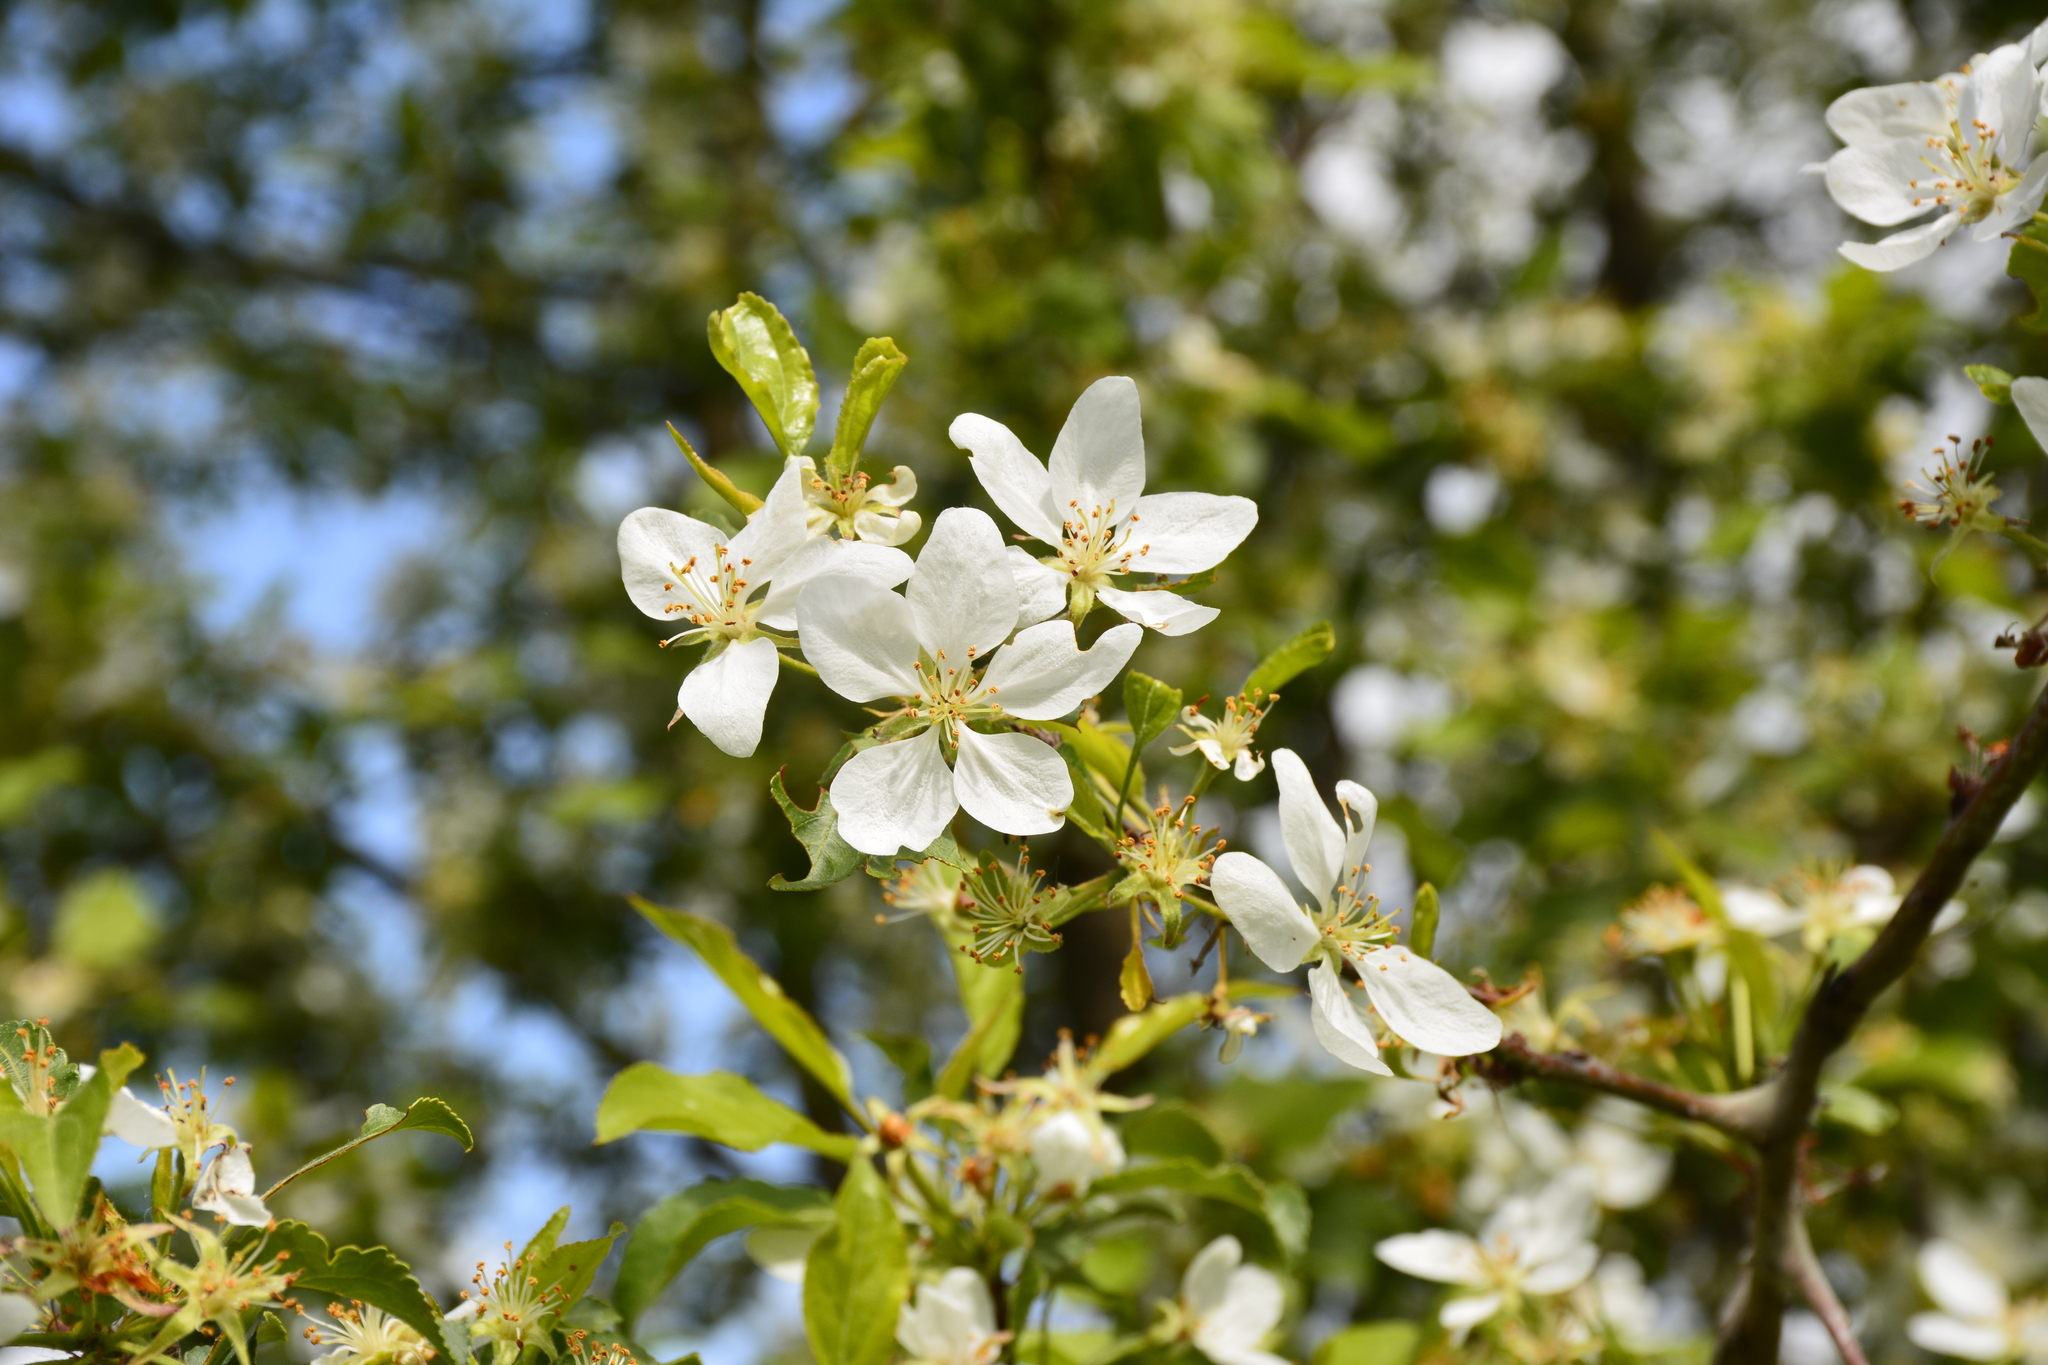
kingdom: Plantae
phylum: Tracheophyta
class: Magnoliopsida
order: Rosales
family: Rosaceae
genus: Malus
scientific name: Malus prunifolia
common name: Chinese apple
